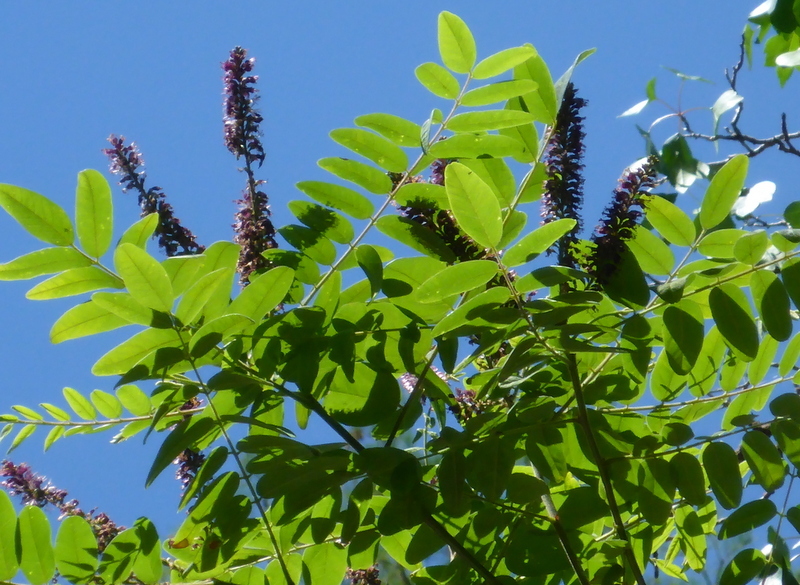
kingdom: Plantae
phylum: Tracheophyta
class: Magnoliopsida
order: Fabales
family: Fabaceae
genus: Amorpha
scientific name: Amorpha fruticosa
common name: False indigo
